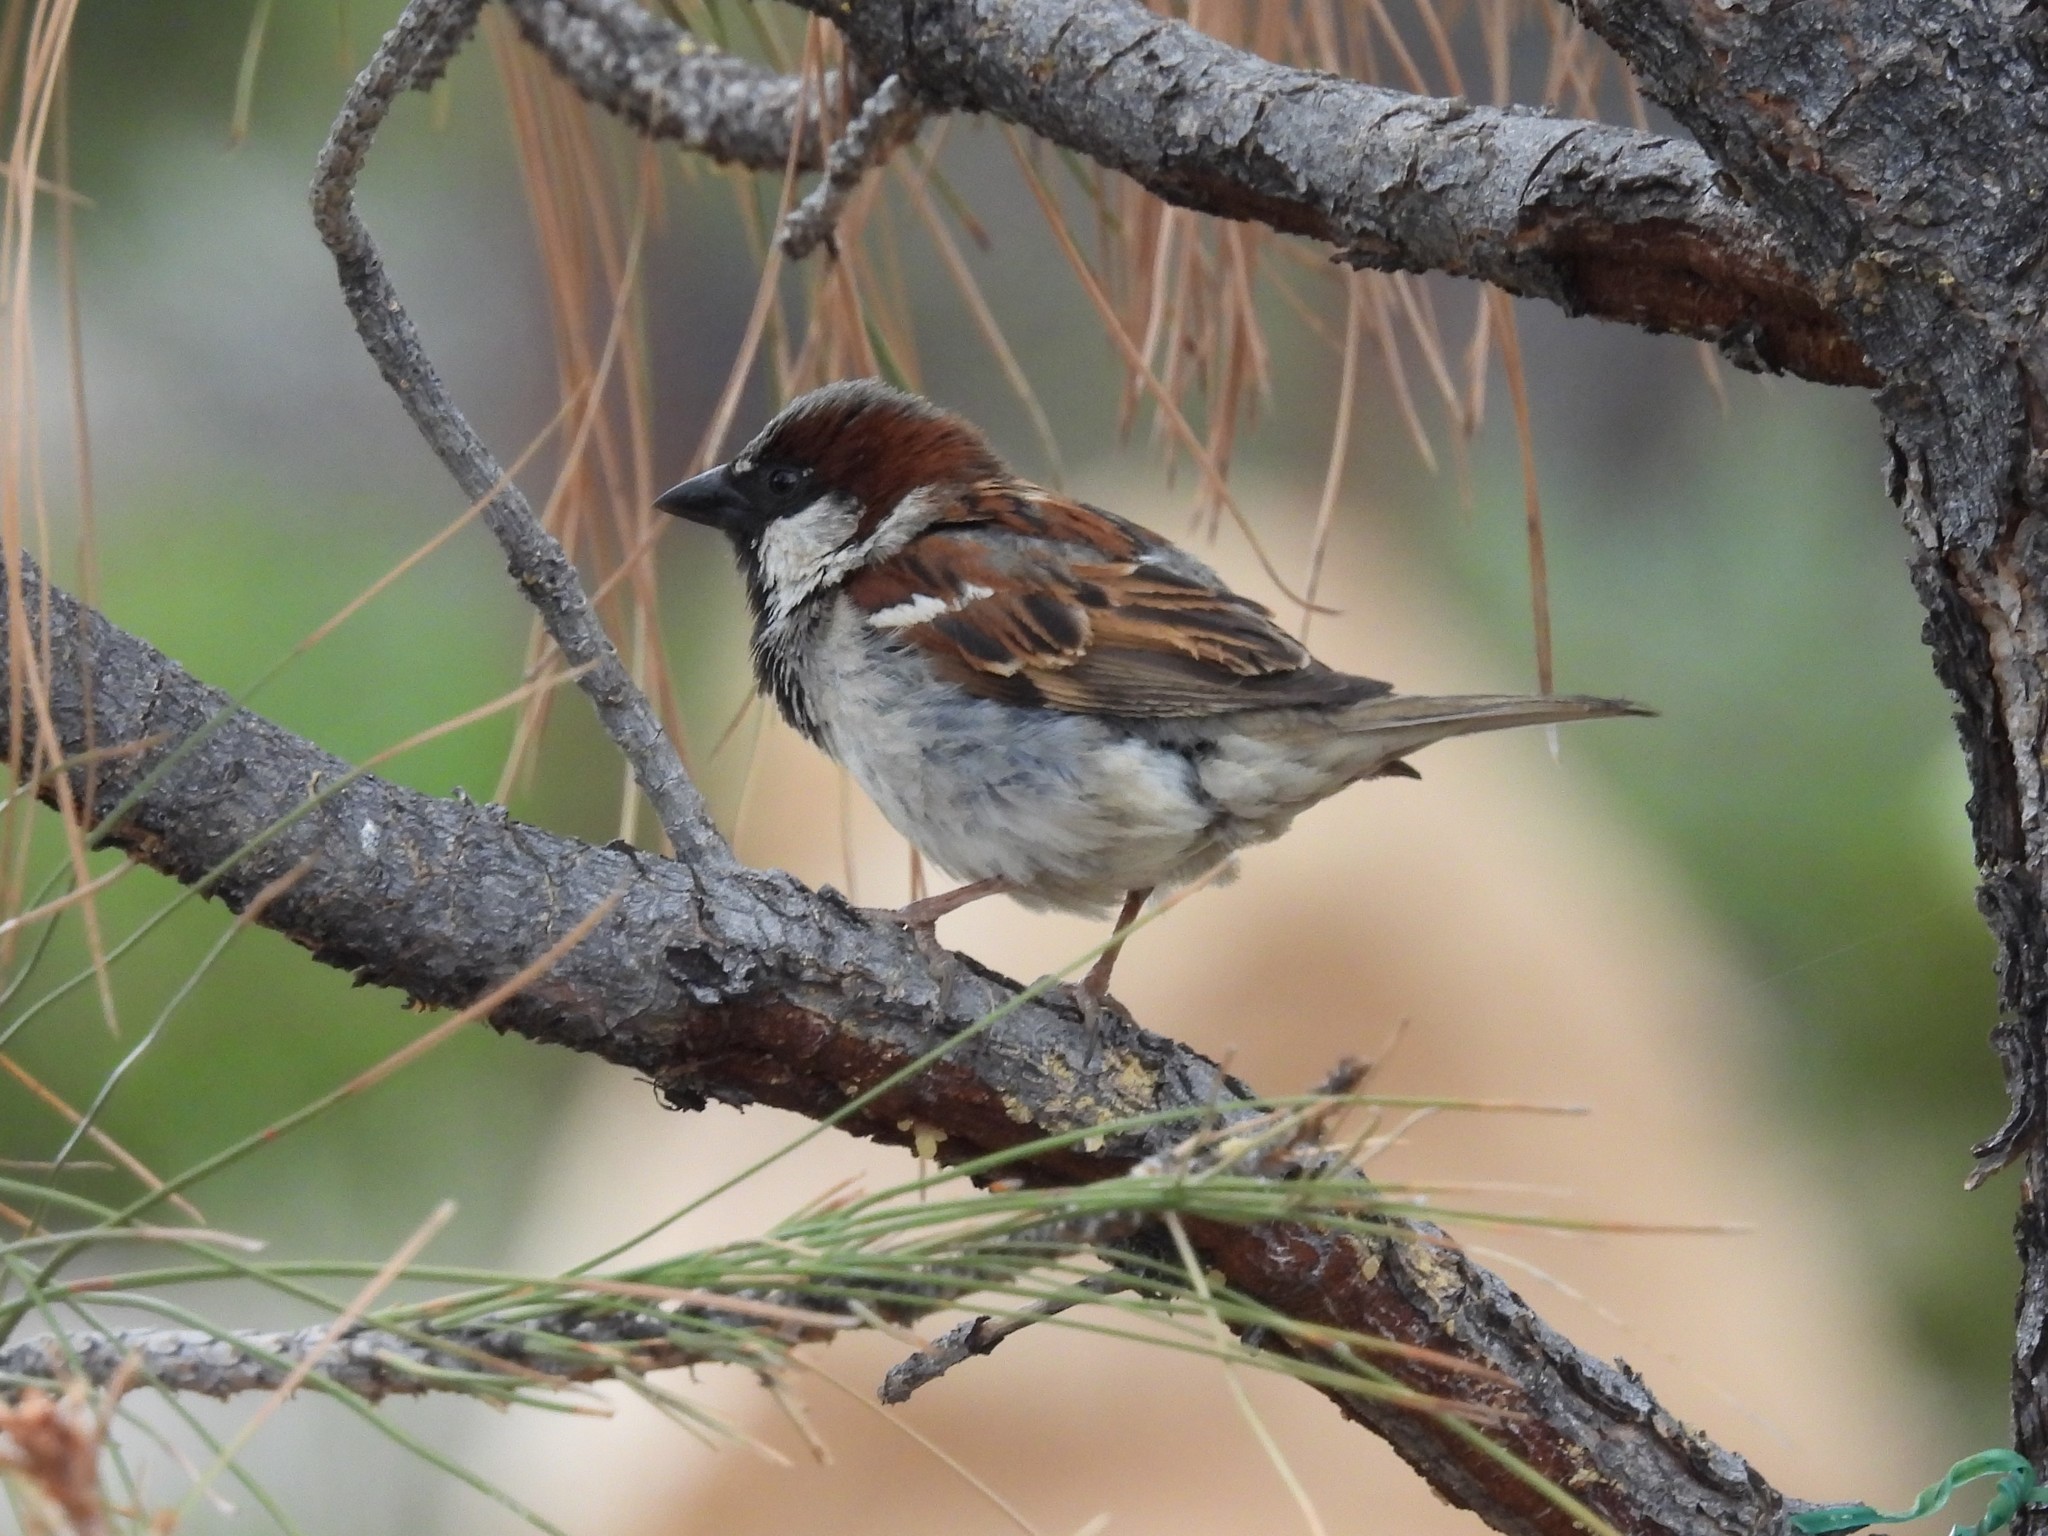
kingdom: Animalia
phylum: Chordata
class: Aves
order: Passeriformes
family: Passeridae
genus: Passer
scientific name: Passer domesticus
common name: House sparrow
